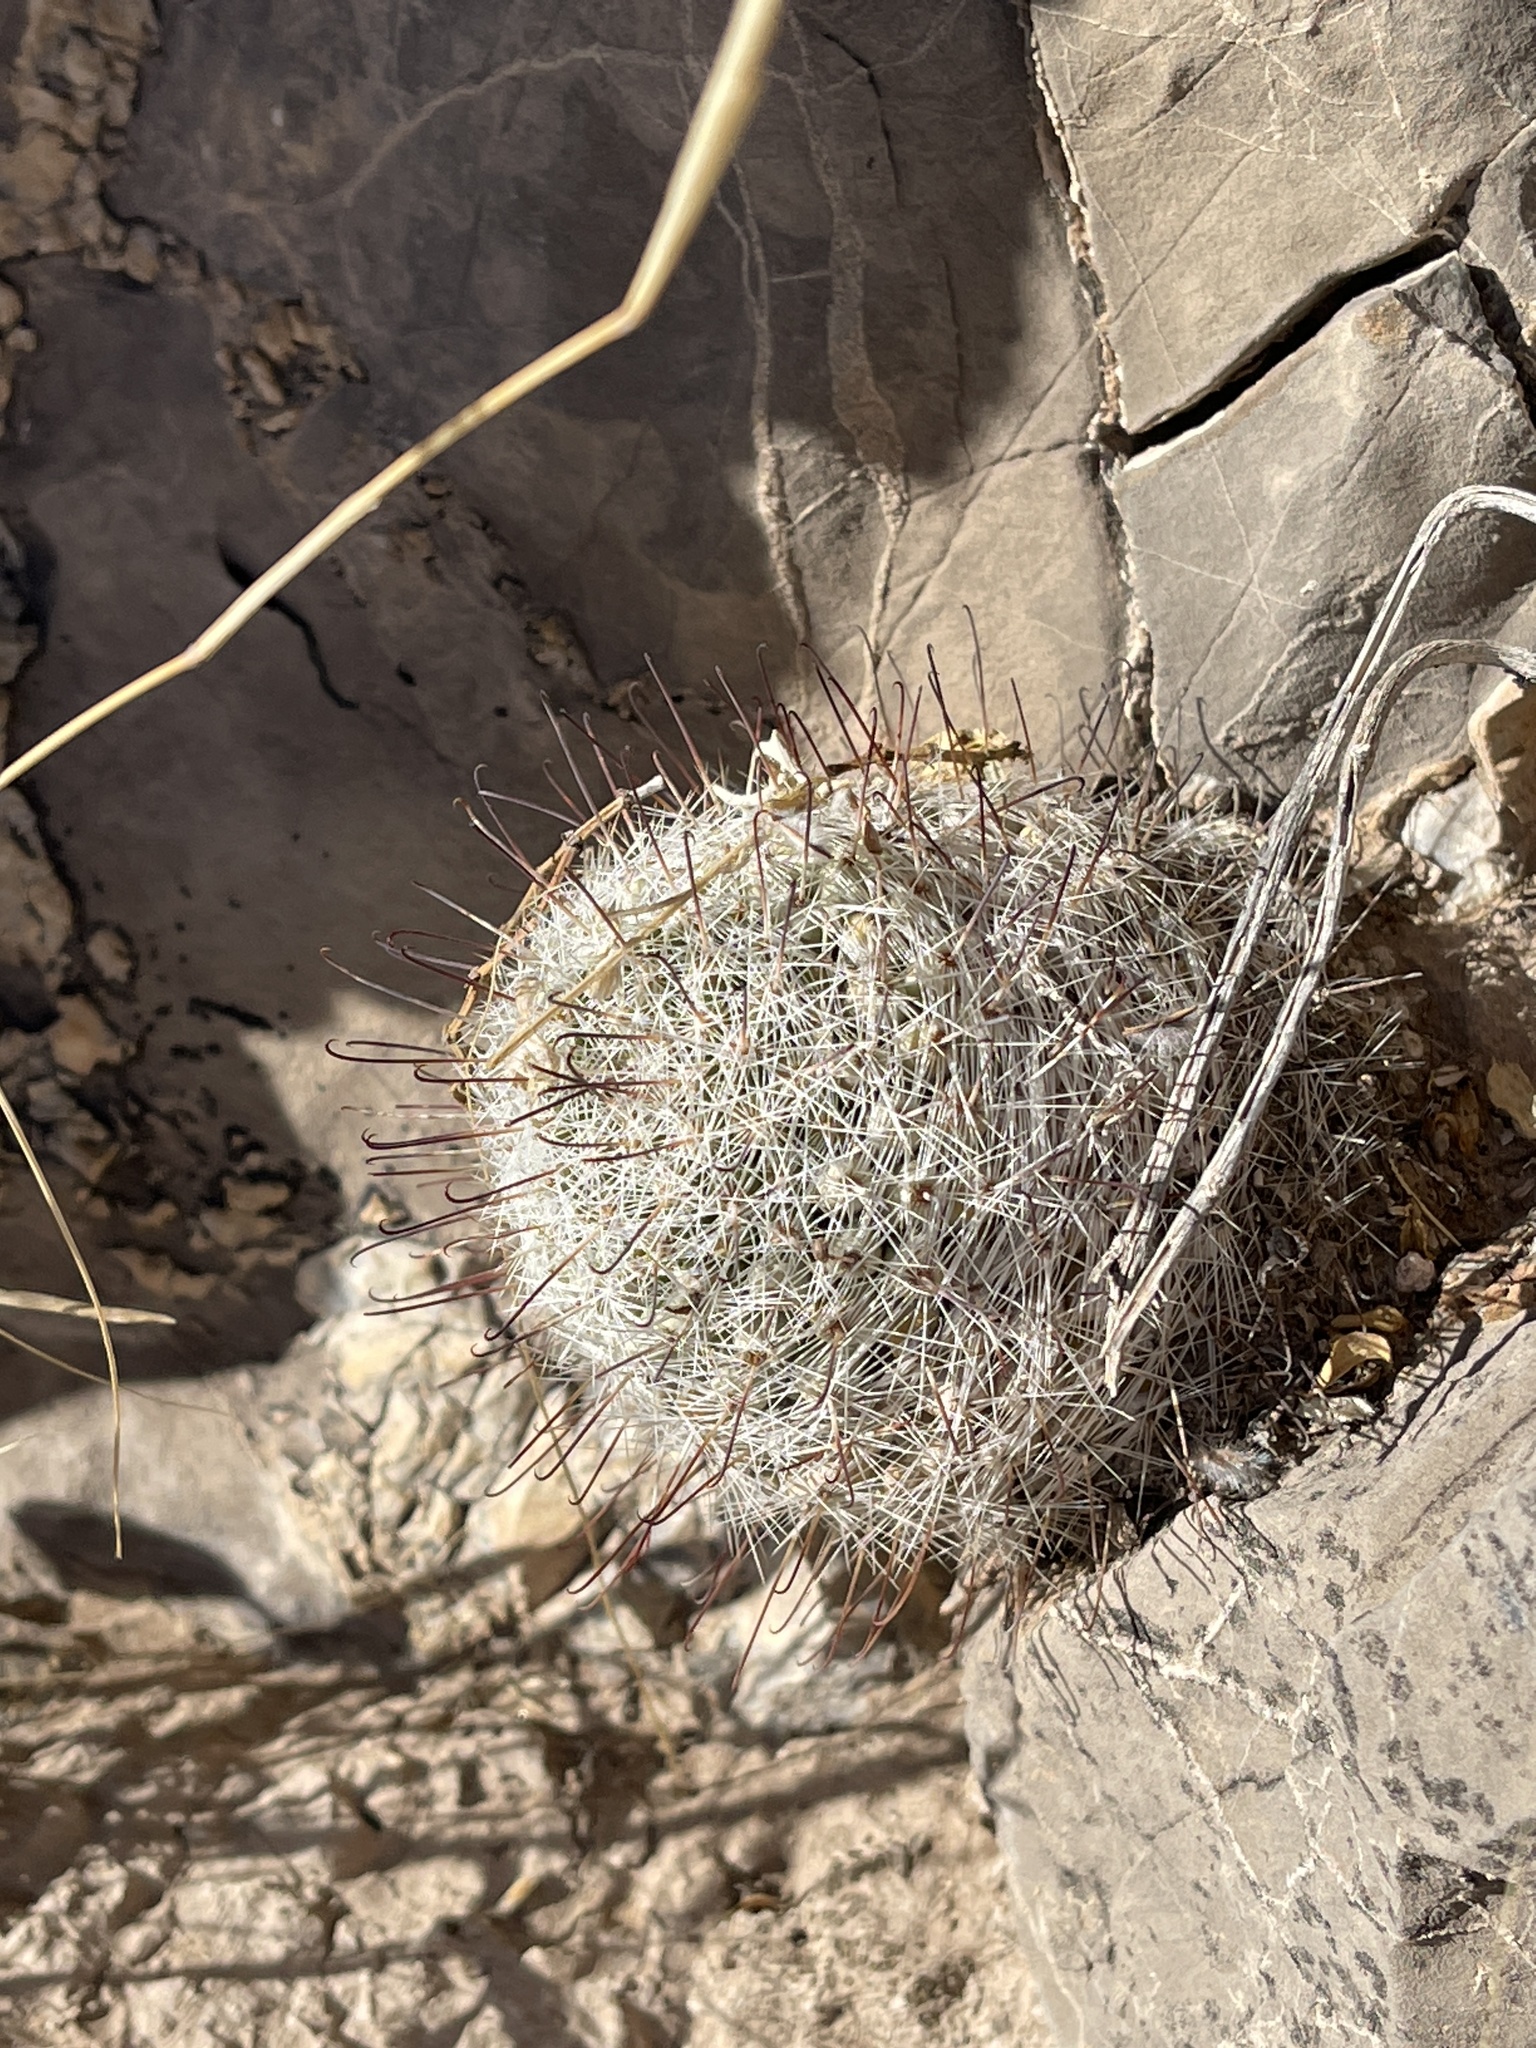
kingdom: Plantae
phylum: Tracheophyta
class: Magnoliopsida
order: Caryophyllales
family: Cactaceae
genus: Cochemiea
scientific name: Cochemiea grahamii
